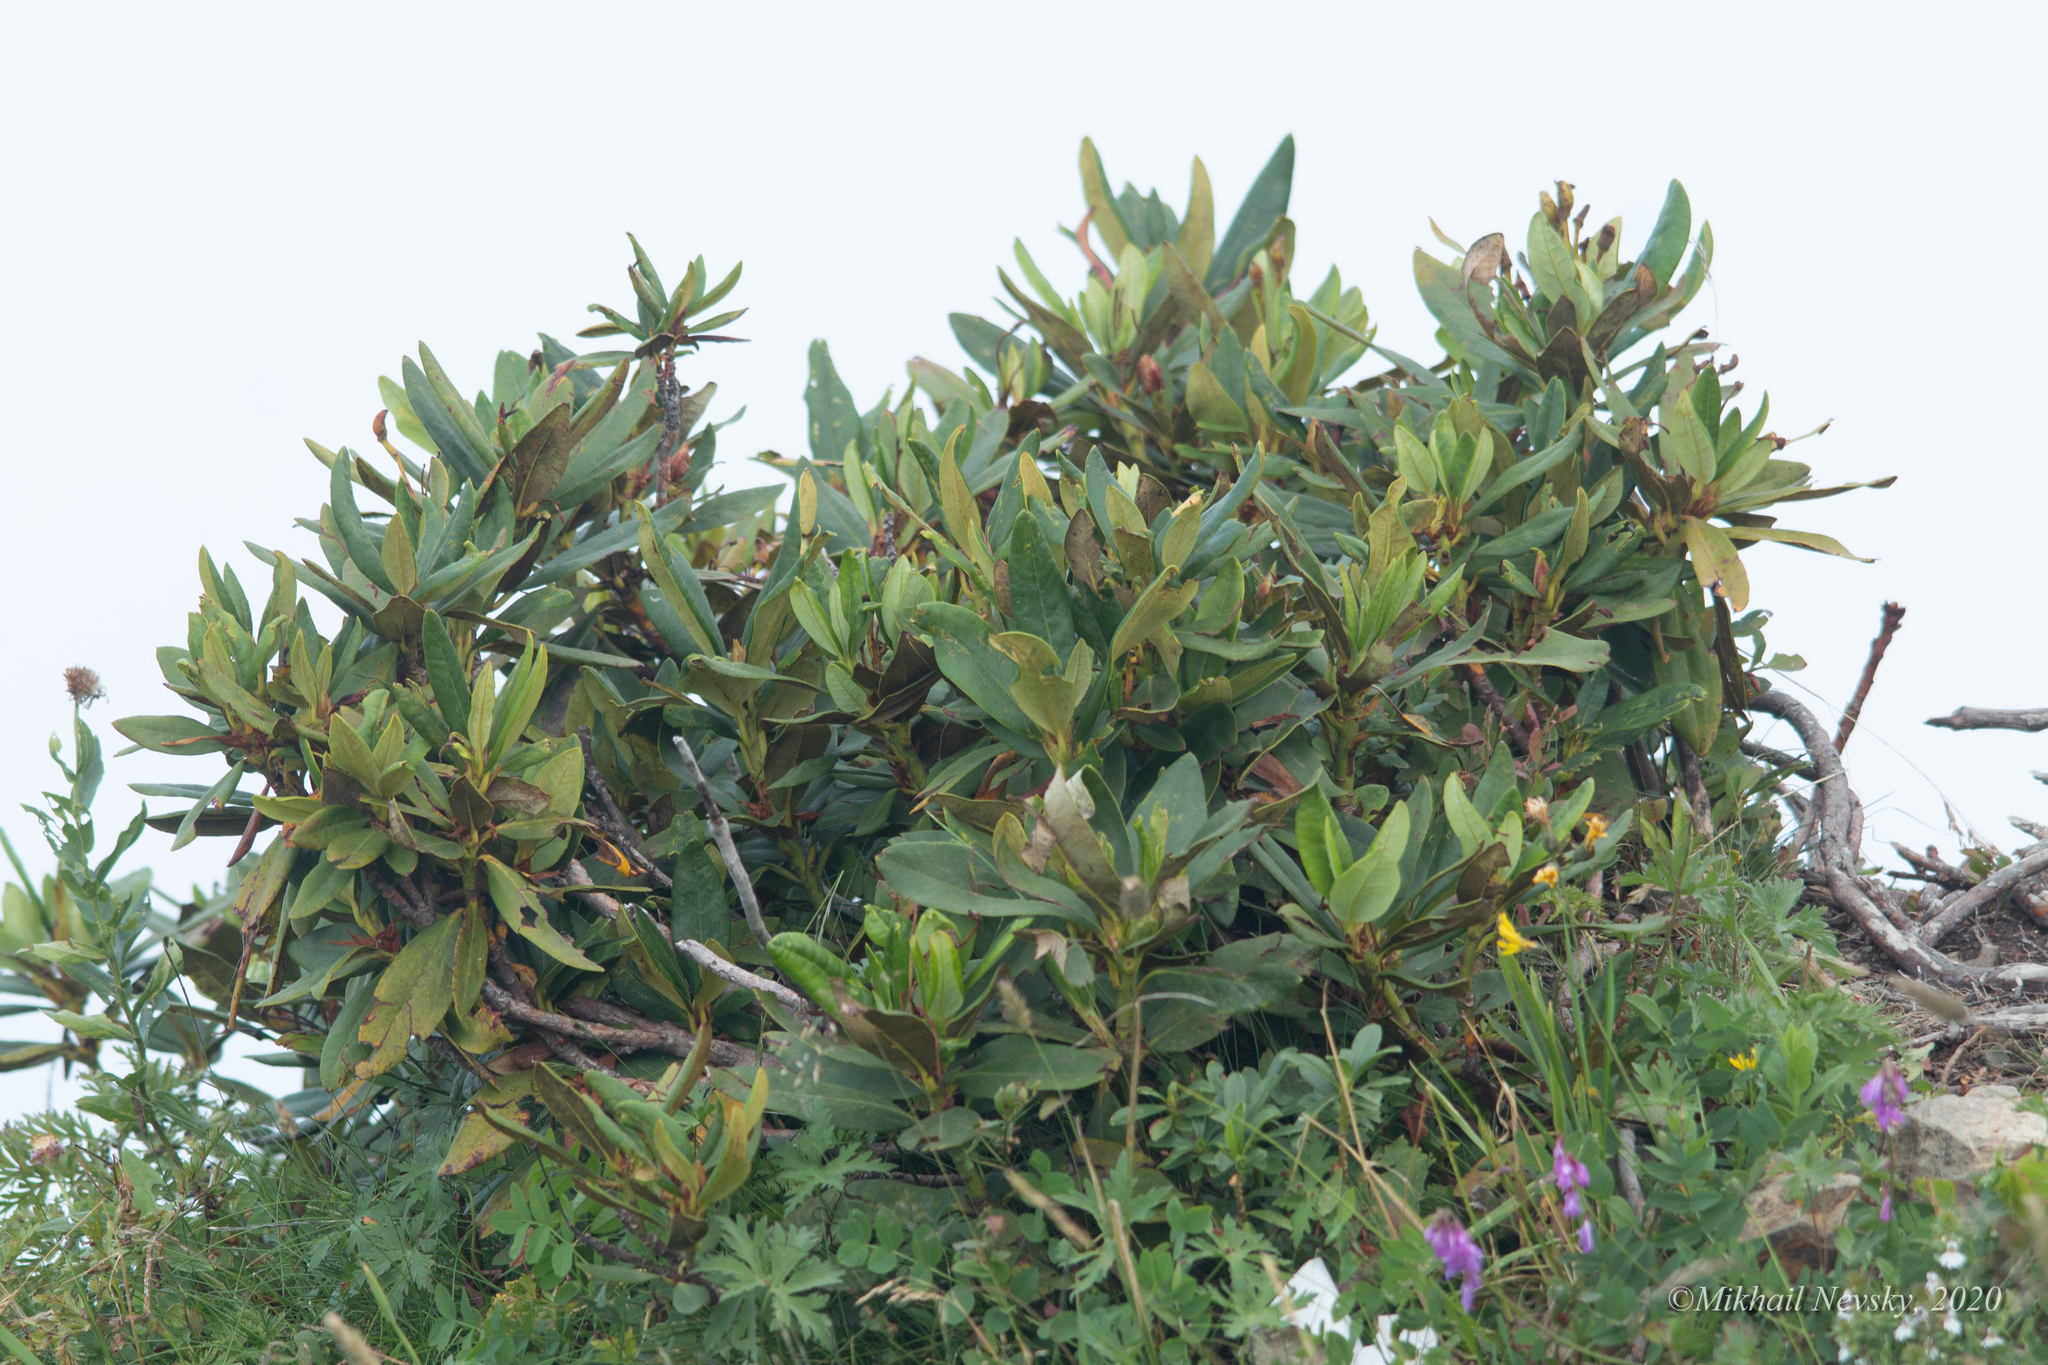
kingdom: Plantae
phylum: Tracheophyta
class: Magnoliopsida
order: Ericales
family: Ericaceae
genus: Rhododendron
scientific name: Rhododendron caucasicum
